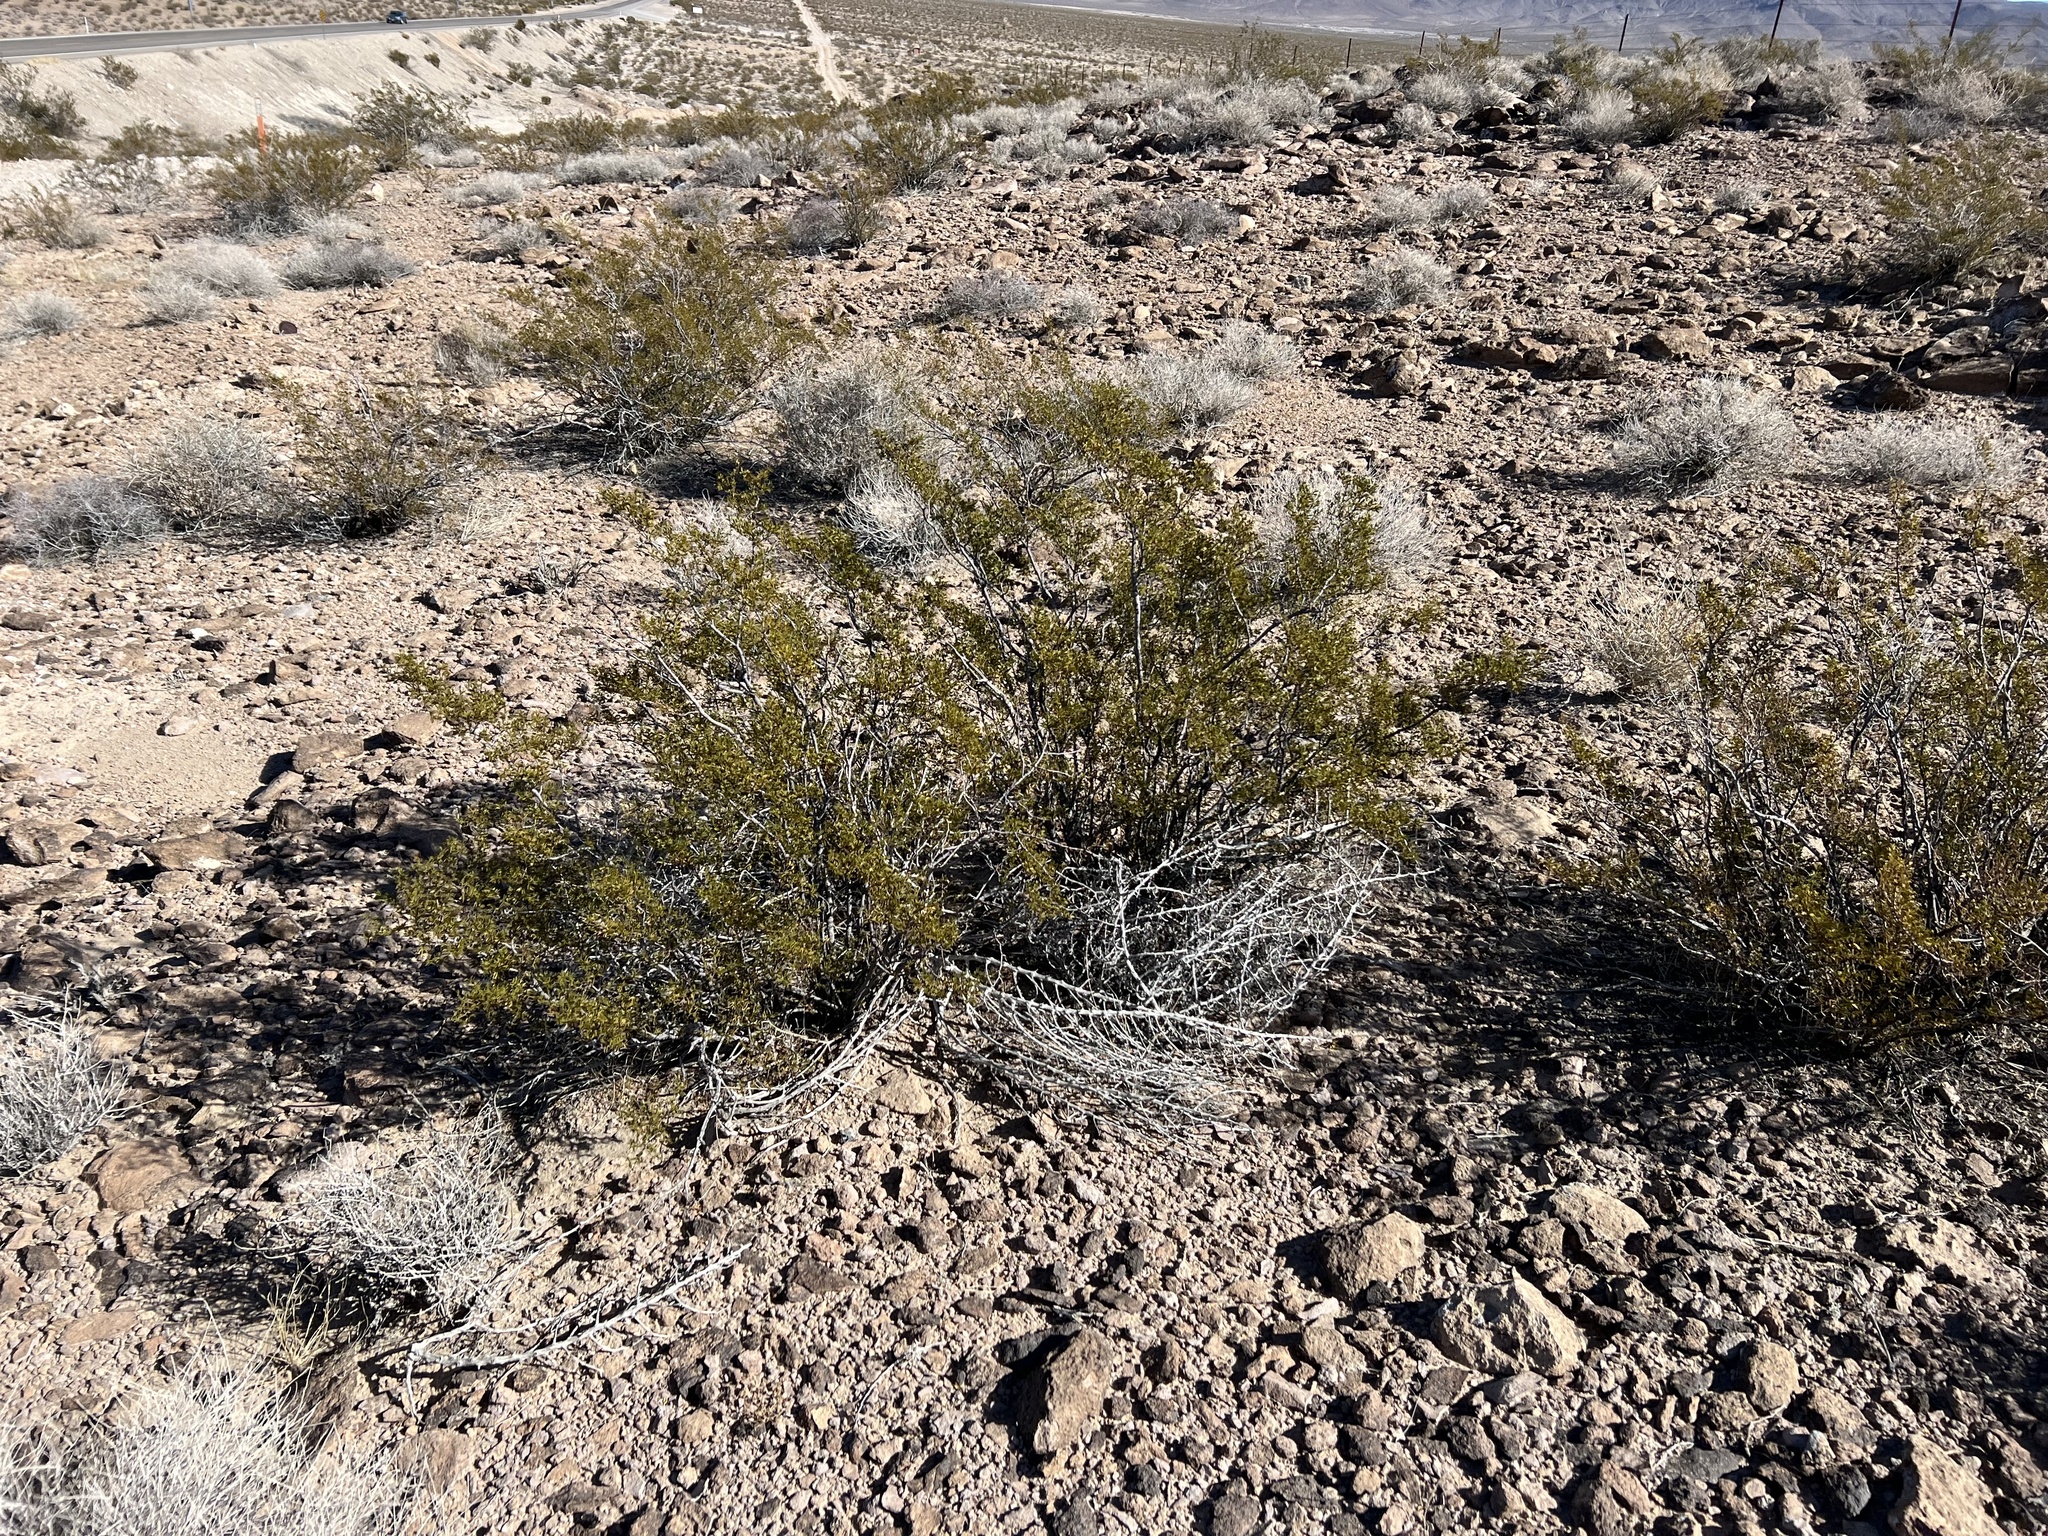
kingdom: Plantae
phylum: Tracheophyta
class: Magnoliopsida
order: Zygophyllales
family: Zygophyllaceae
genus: Larrea
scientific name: Larrea tridentata
